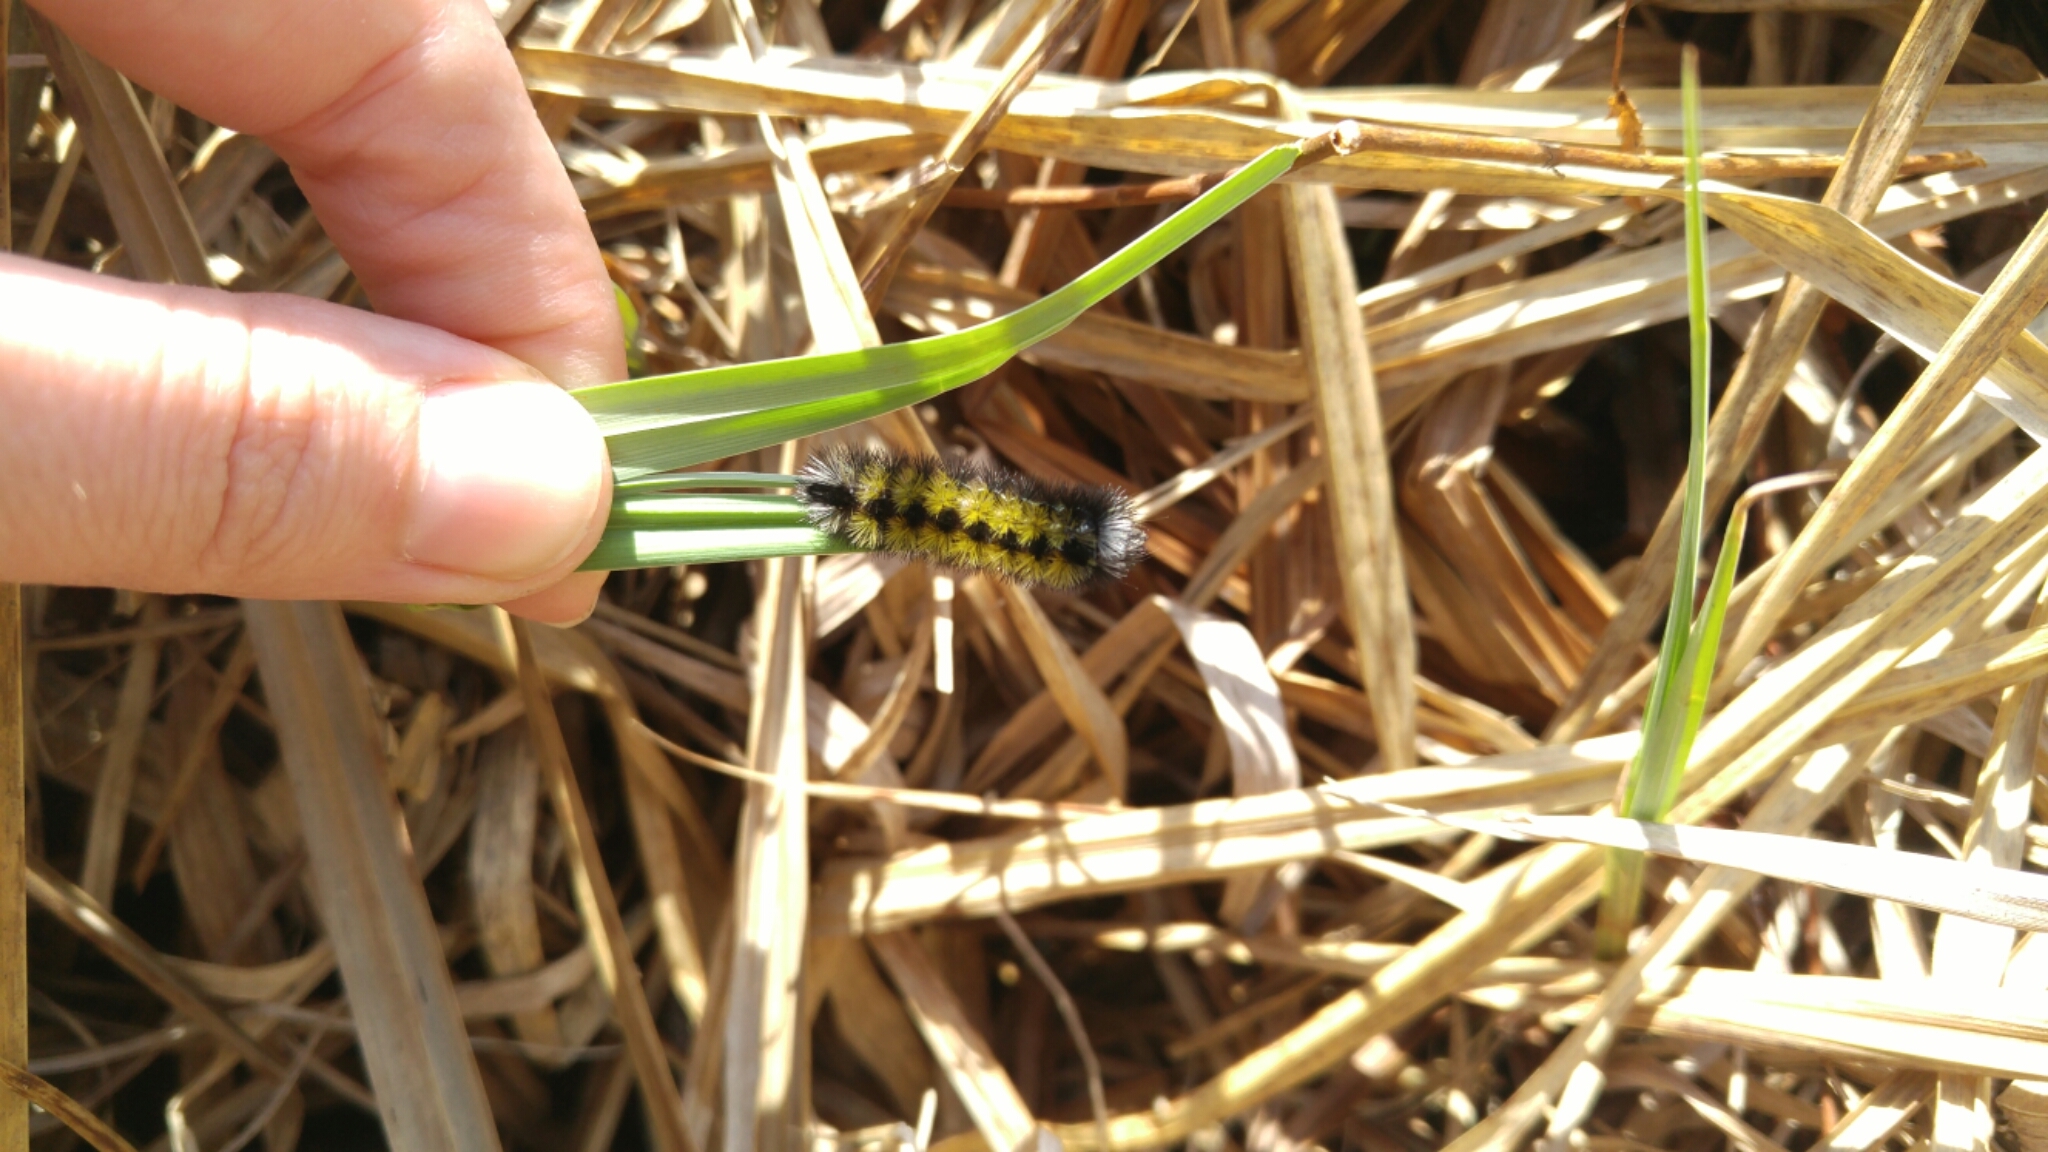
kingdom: Animalia
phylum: Arthropoda
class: Insecta
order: Lepidoptera
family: Erebidae
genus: Ctenucha
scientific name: Ctenucha virginica
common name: Virginia ctenucha moth
